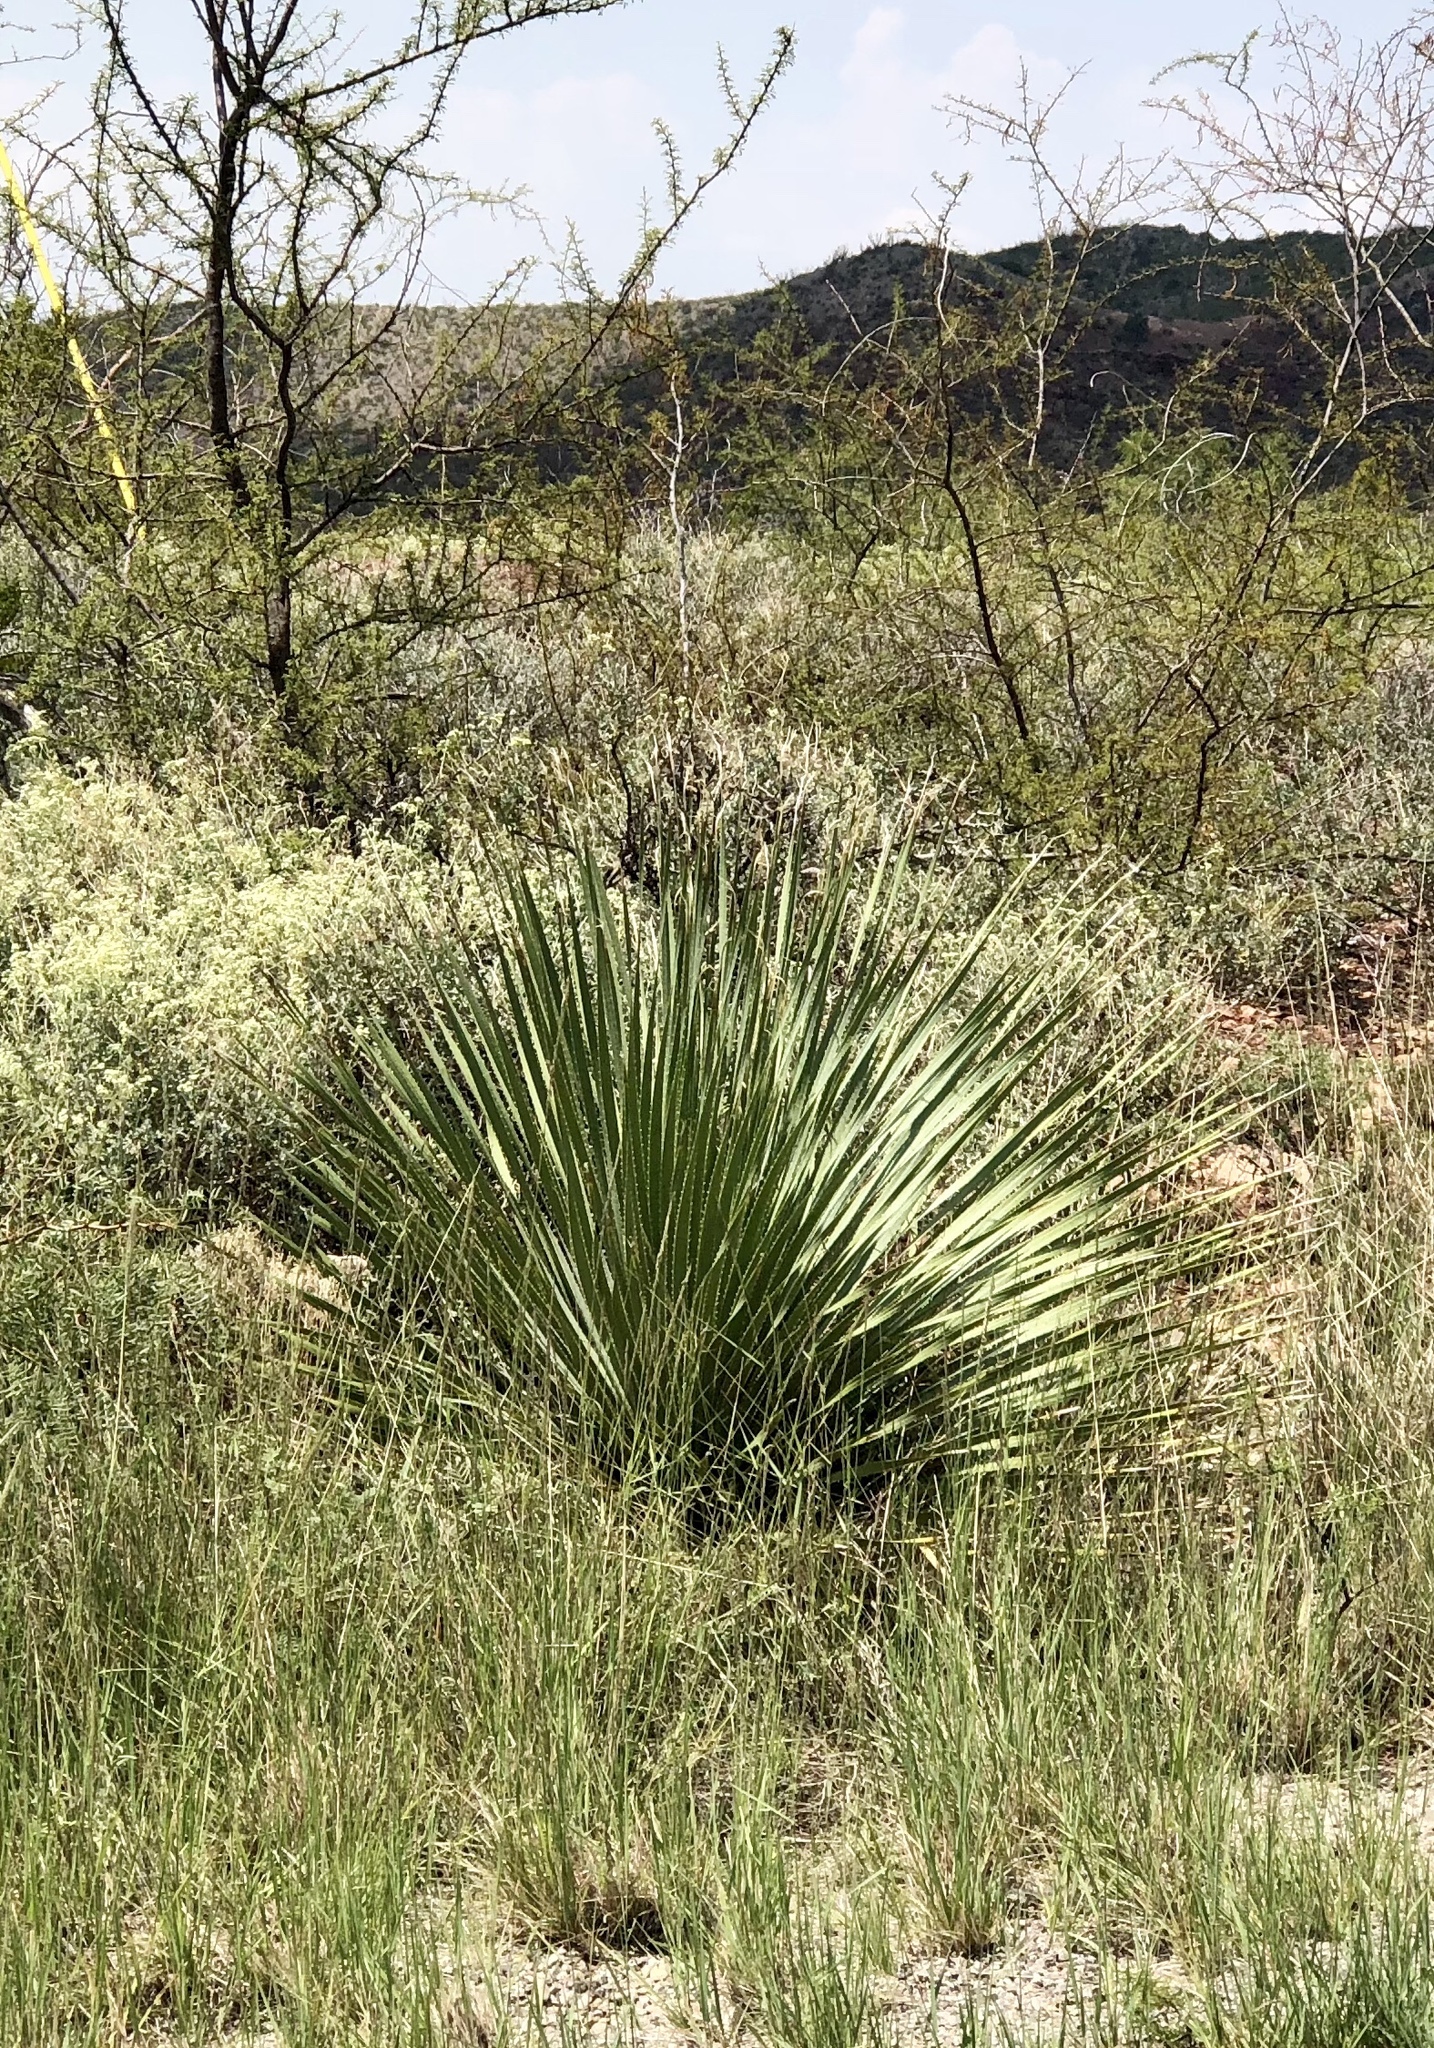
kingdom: Plantae
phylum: Tracheophyta
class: Liliopsida
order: Asparagales
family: Asparagaceae
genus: Dasylirion
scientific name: Dasylirion wheeleri
